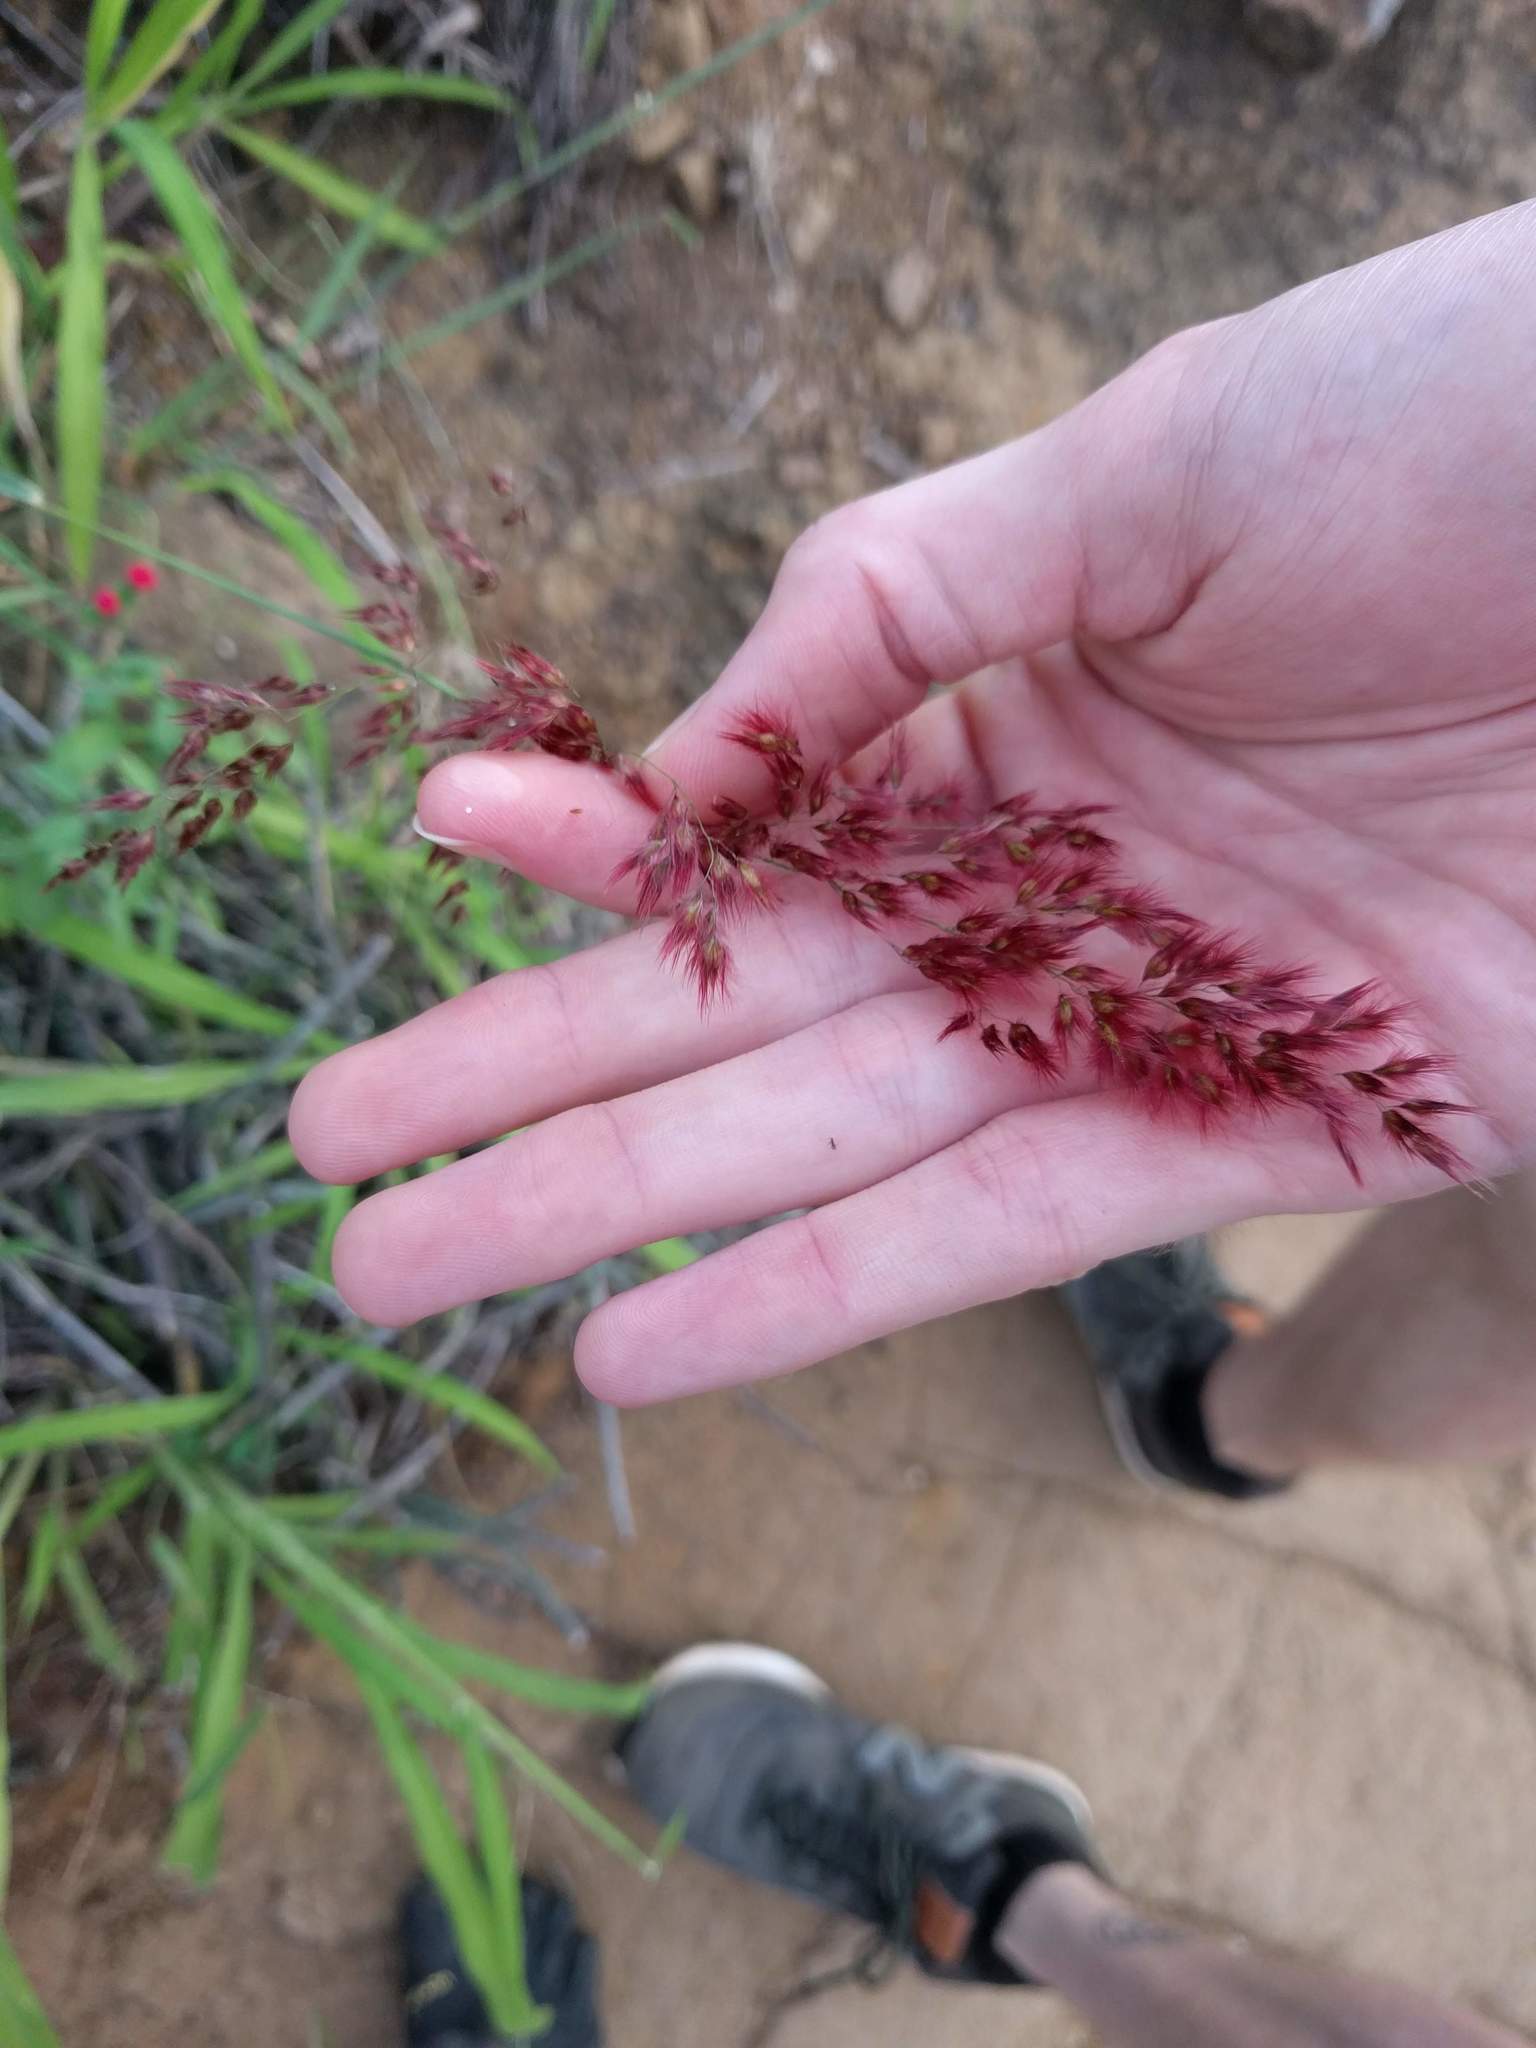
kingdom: Plantae
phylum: Tracheophyta
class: Liliopsida
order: Poales
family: Poaceae
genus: Melinis
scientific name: Melinis repens
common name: Rose natal grass
